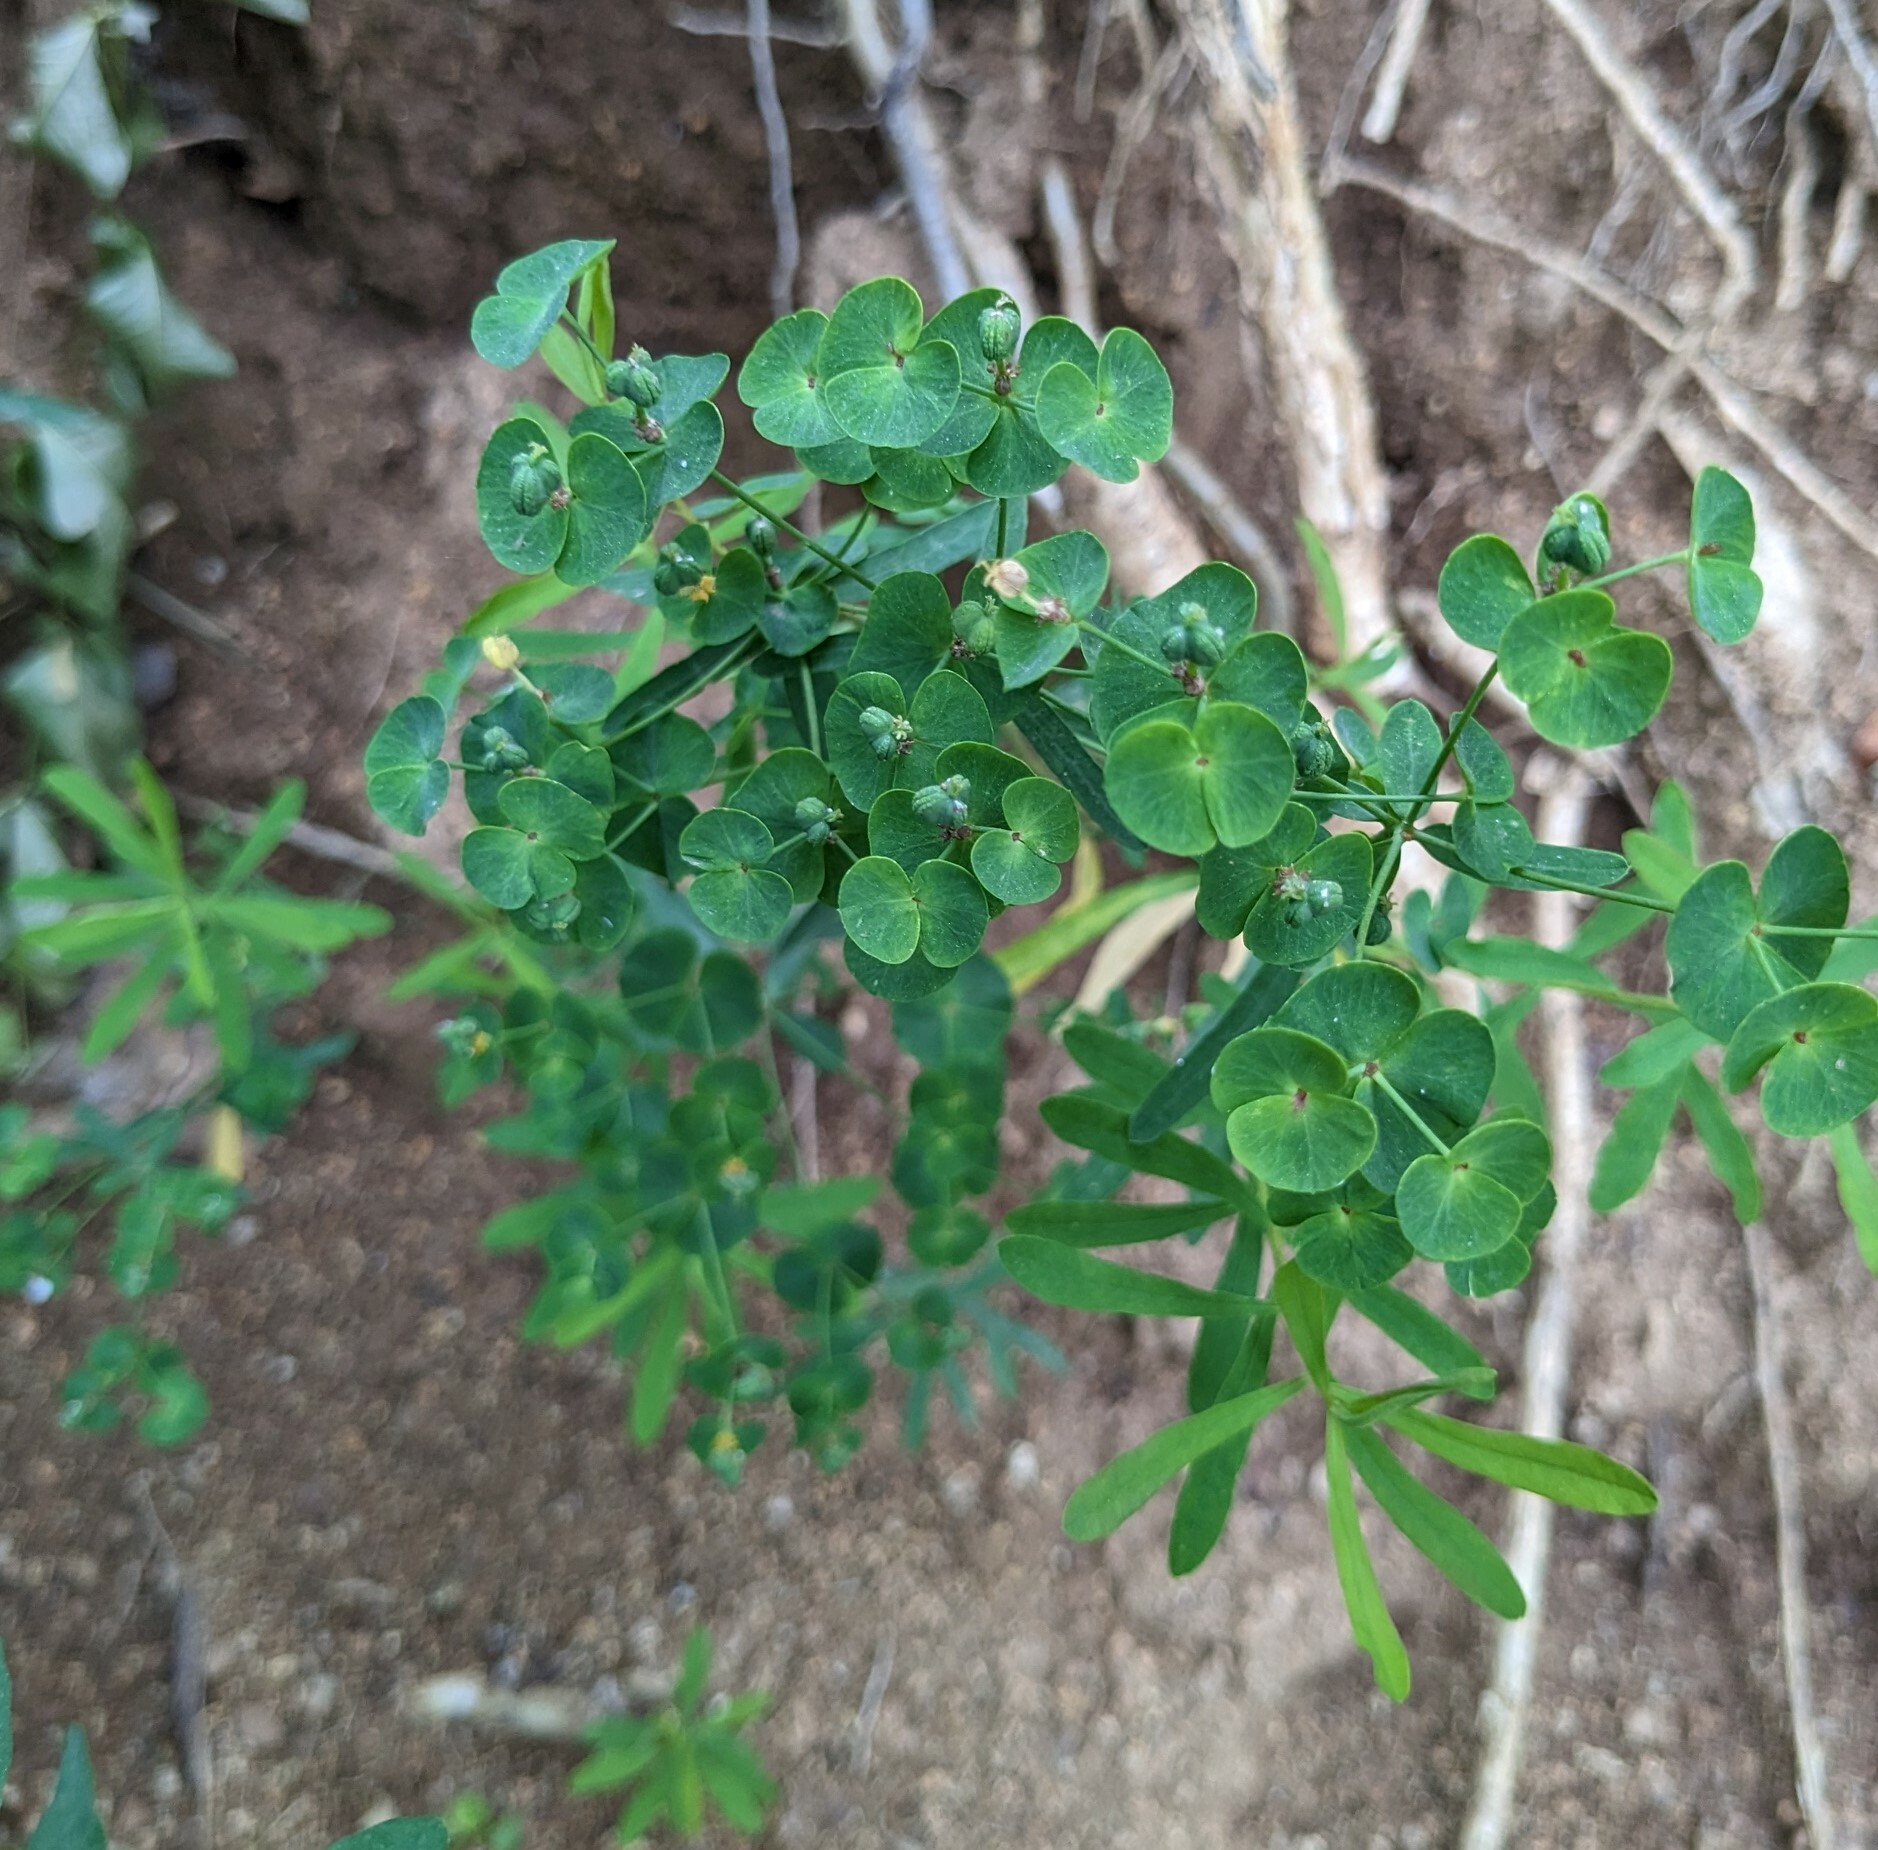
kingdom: Plantae
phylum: Tracheophyta
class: Magnoliopsida
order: Malpighiales
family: Euphorbiaceae
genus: Euphorbia
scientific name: Euphorbia lucorum
